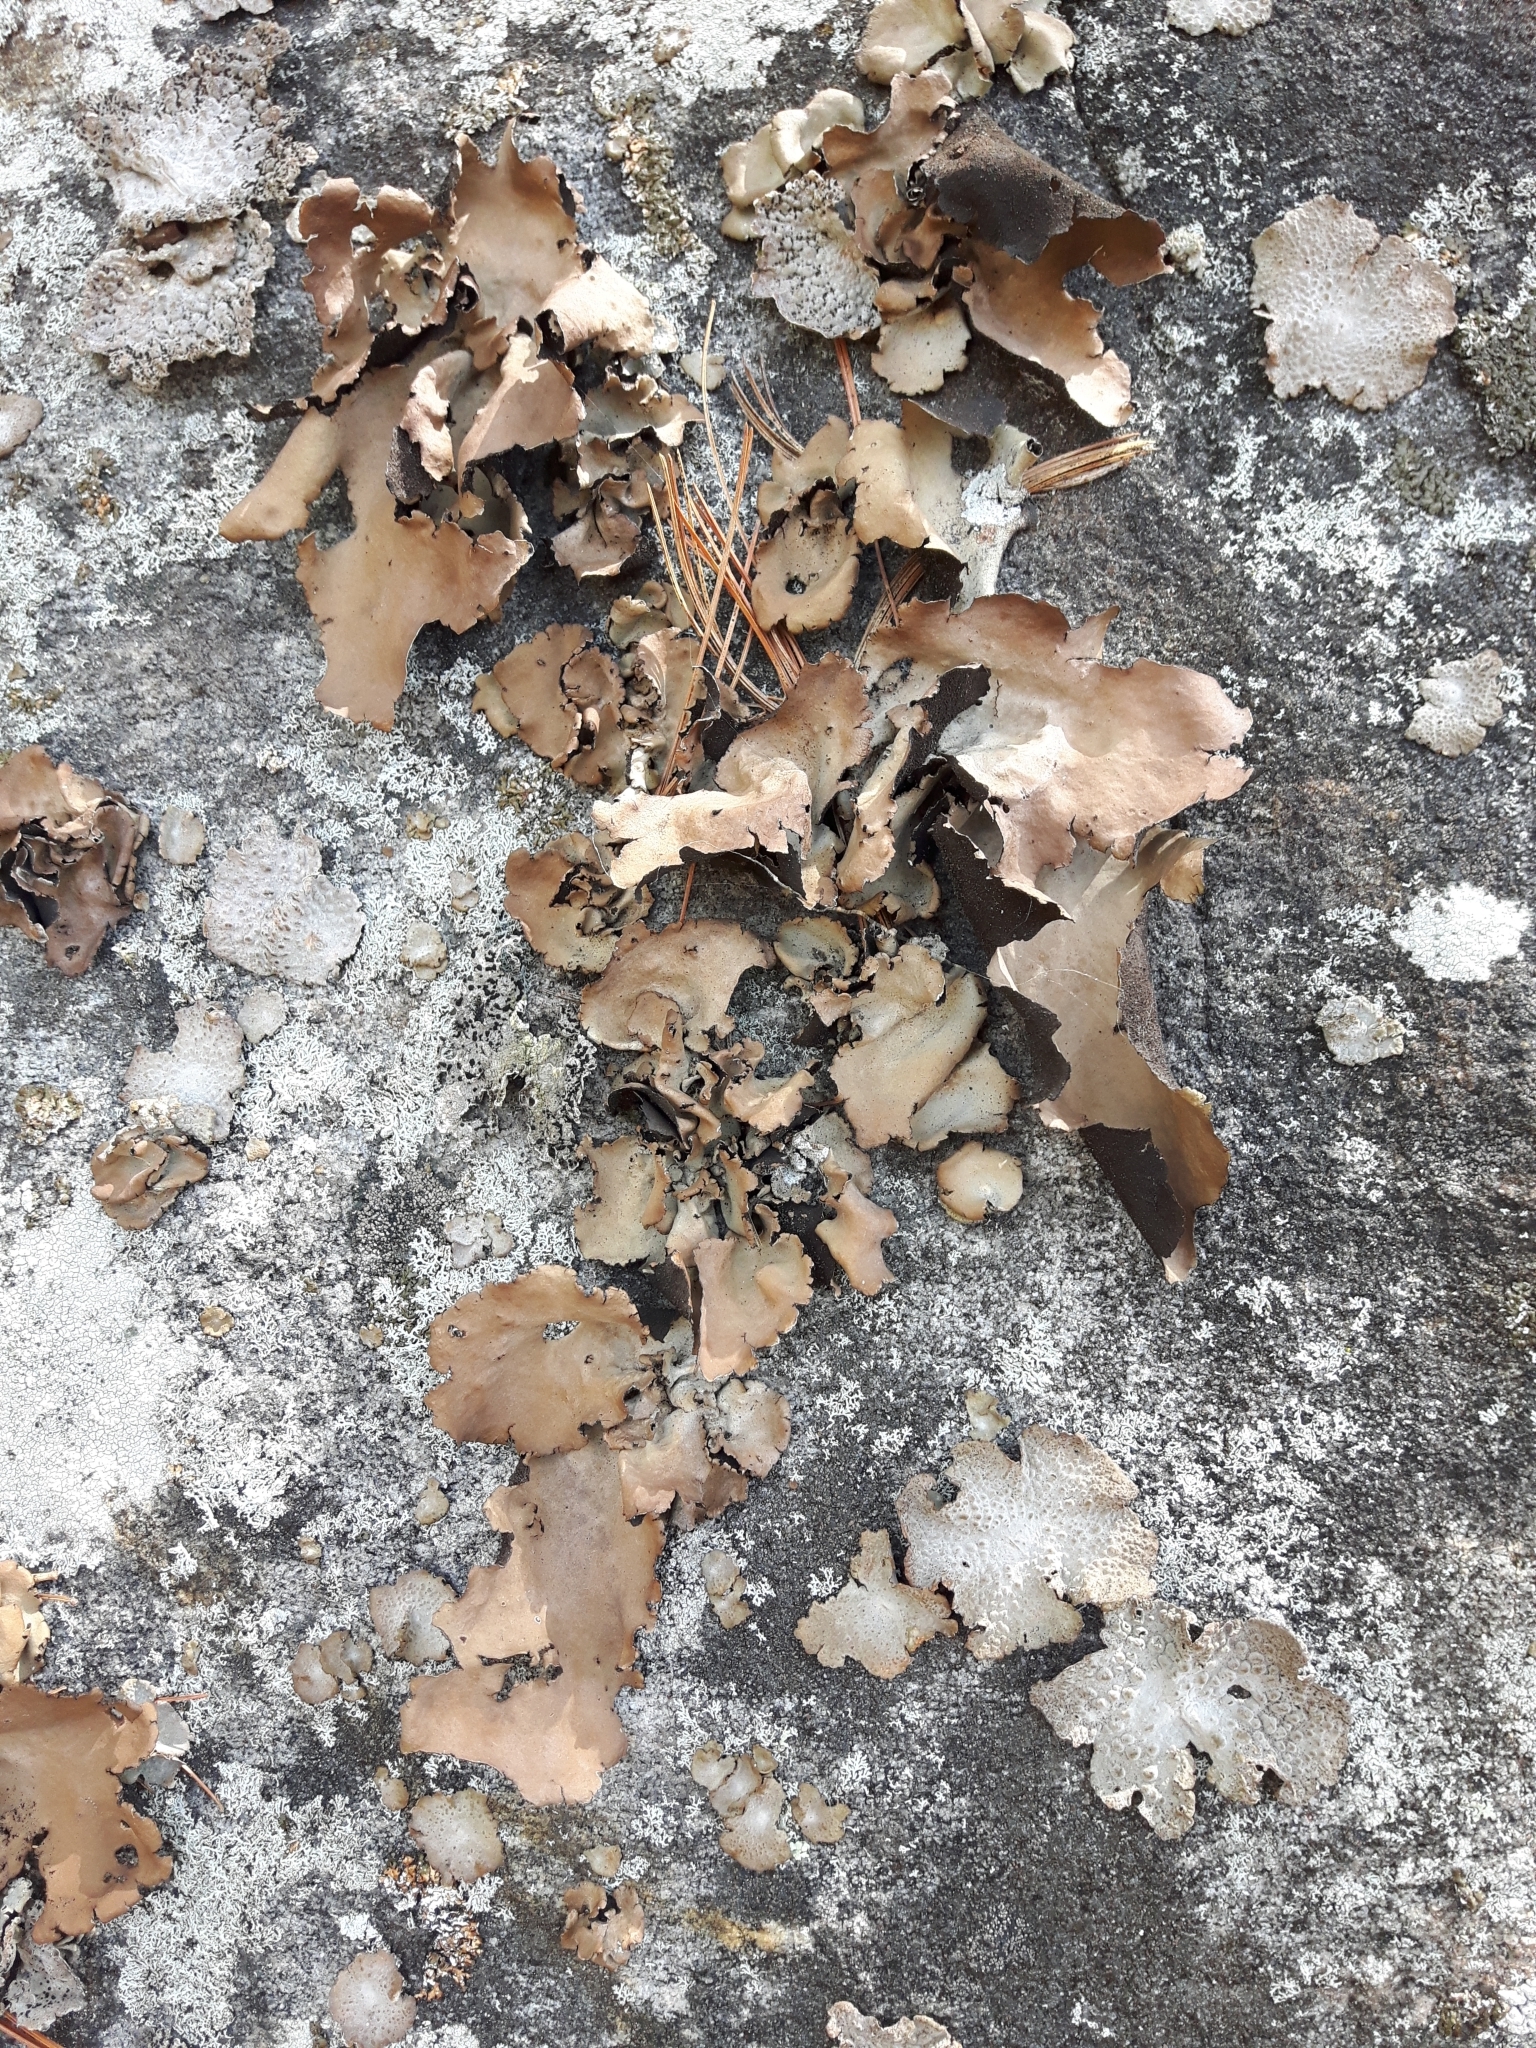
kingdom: Fungi
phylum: Ascomycota
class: Lecanoromycetes
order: Umbilicariales
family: Umbilicariaceae
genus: Umbilicaria
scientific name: Umbilicaria mammulata
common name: Smooth rock tripe
